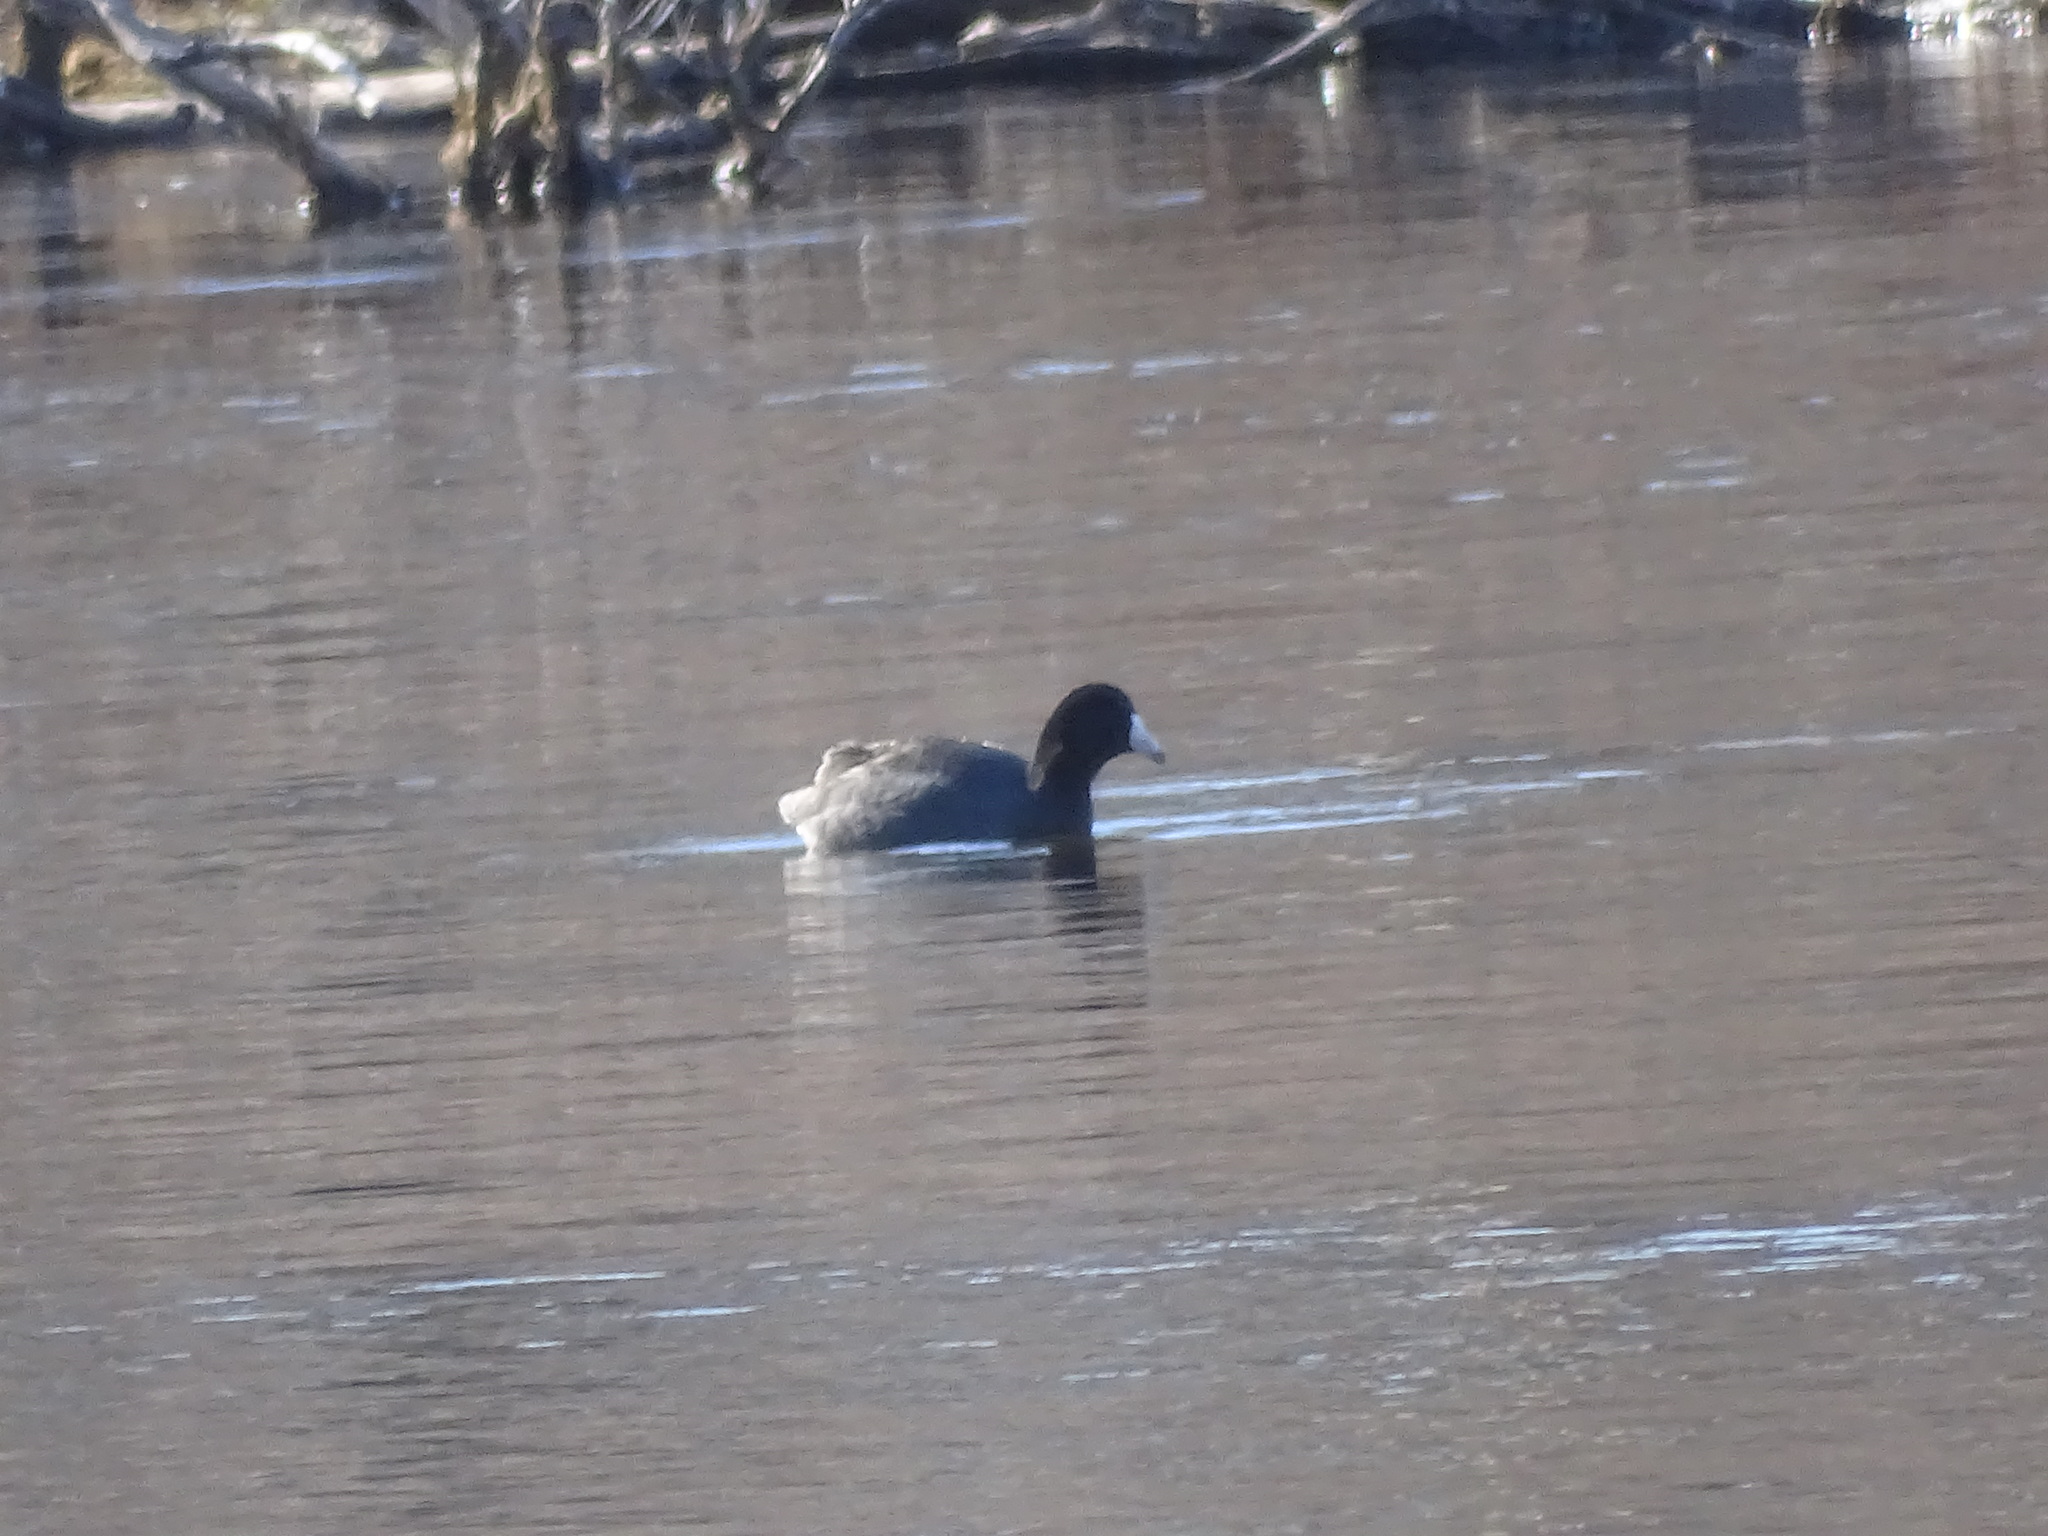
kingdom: Animalia
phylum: Chordata
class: Aves
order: Gruiformes
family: Rallidae
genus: Fulica
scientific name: Fulica americana
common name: American coot
